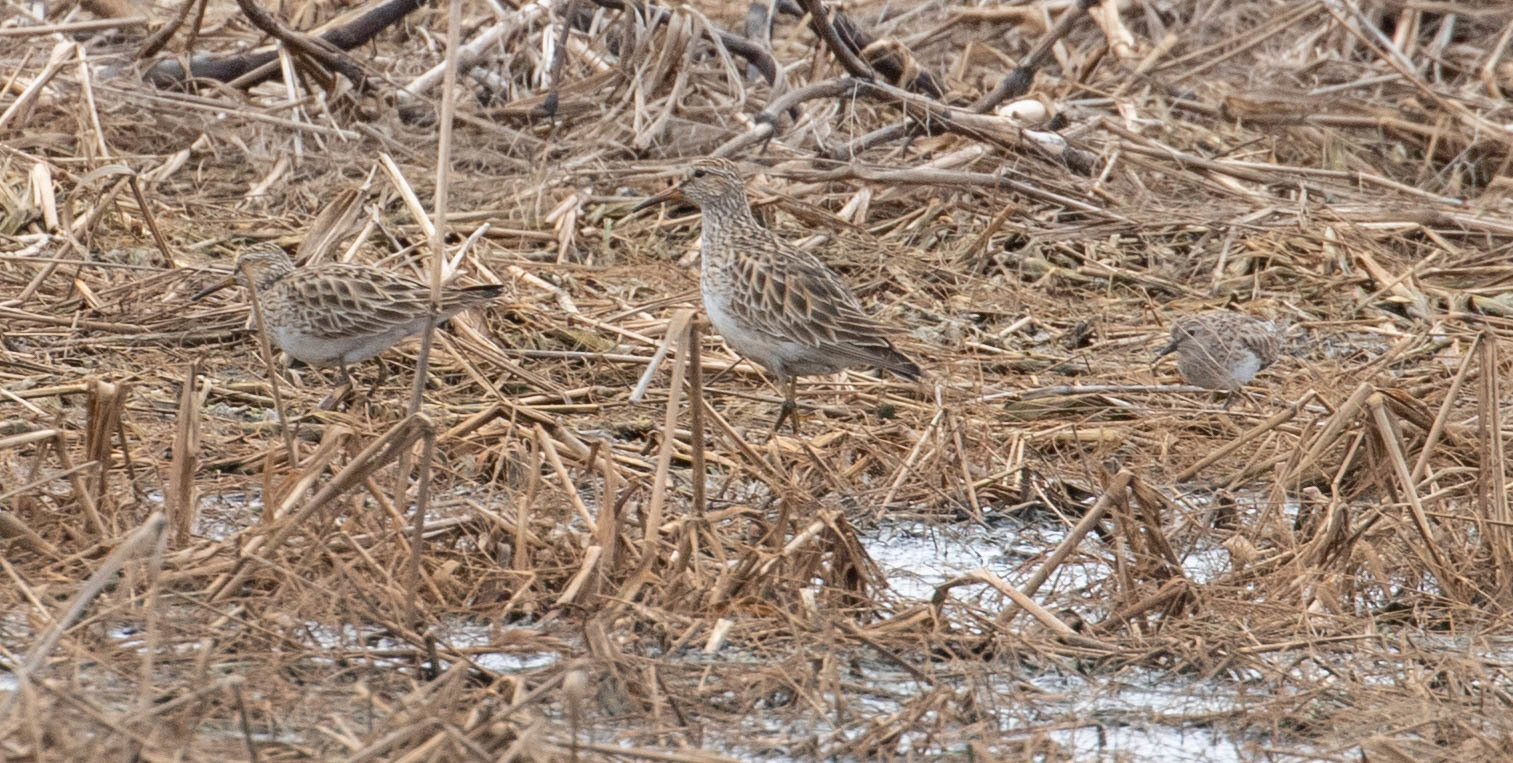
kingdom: Animalia
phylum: Chordata
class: Aves
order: Charadriiformes
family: Scolopacidae
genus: Calidris
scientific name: Calidris melanotos
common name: Pectoral sandpiper
